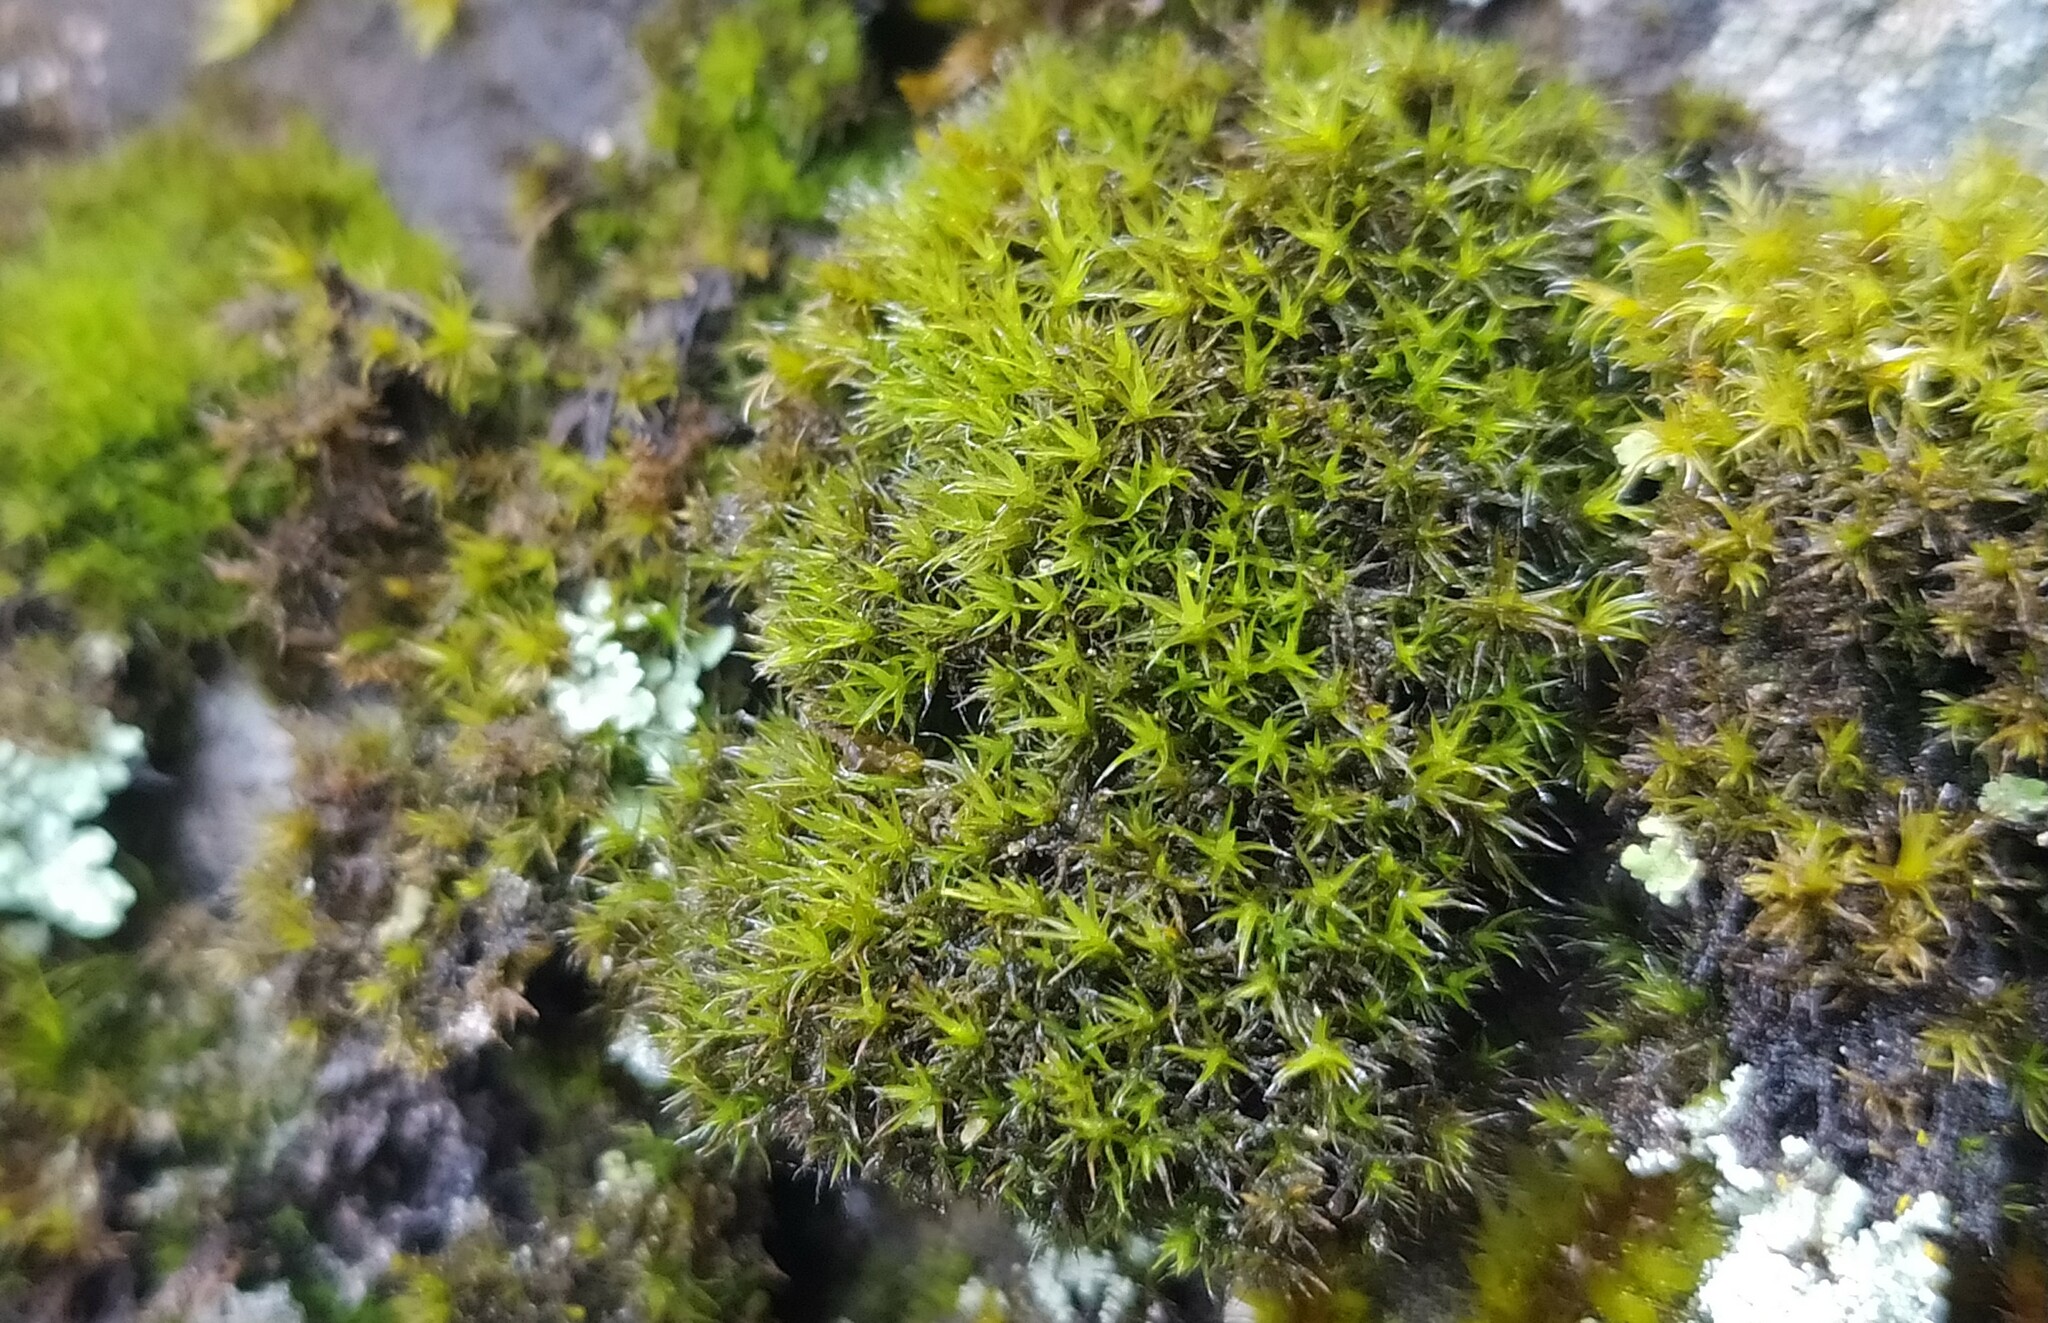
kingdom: Plantae
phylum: Bryophyta
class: Bryopsida
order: Grimmiales
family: Grimmiaceae
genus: Grimmia
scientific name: Grimmia muehlenbeckii
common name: Muehlenbeck's grimmia
